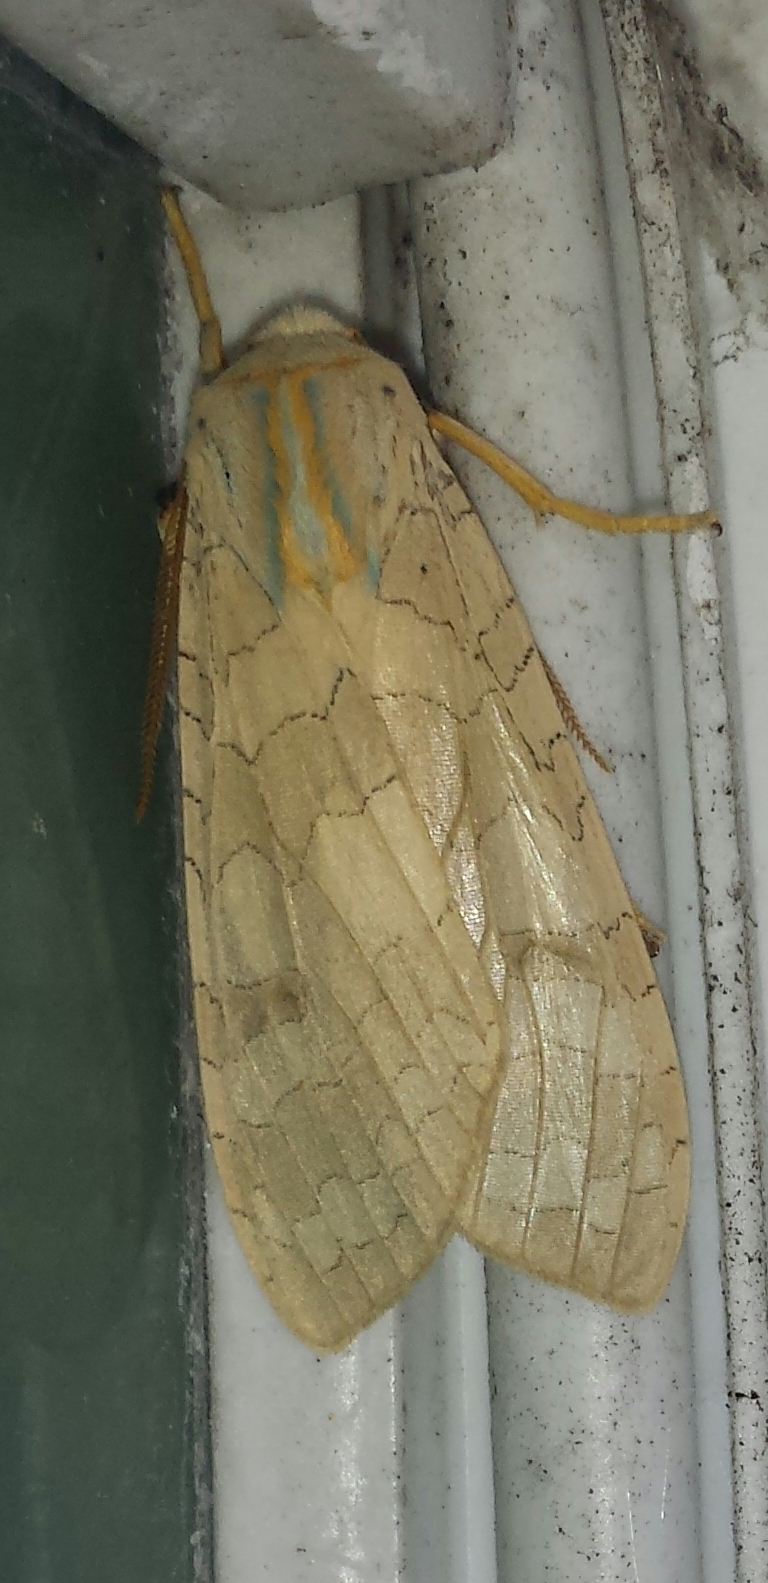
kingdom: Animalia
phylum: Arthropoda
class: Insecta
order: Lepidoptera
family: Erebidae
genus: Halysidota
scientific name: Halysidota tessellaris
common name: Banded tussock moth
